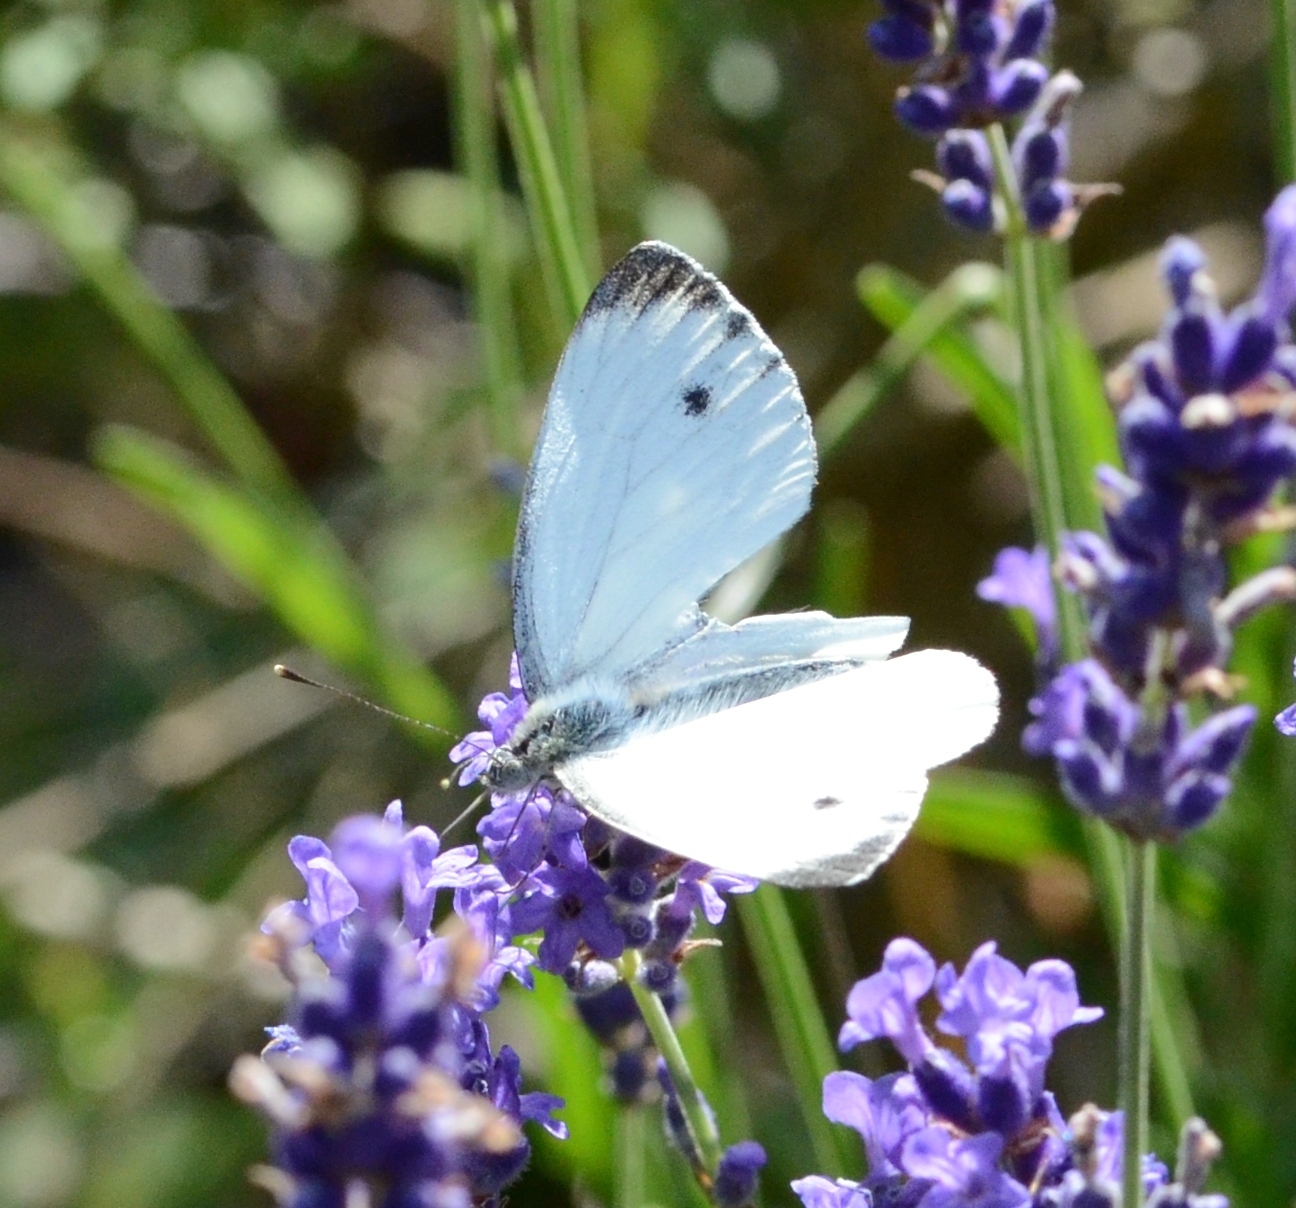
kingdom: Animalia
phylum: Arthropoda
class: Insecta
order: Lepidoptera
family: Pieridae
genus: Pieris
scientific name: Pieris napi
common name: Green-veined white
